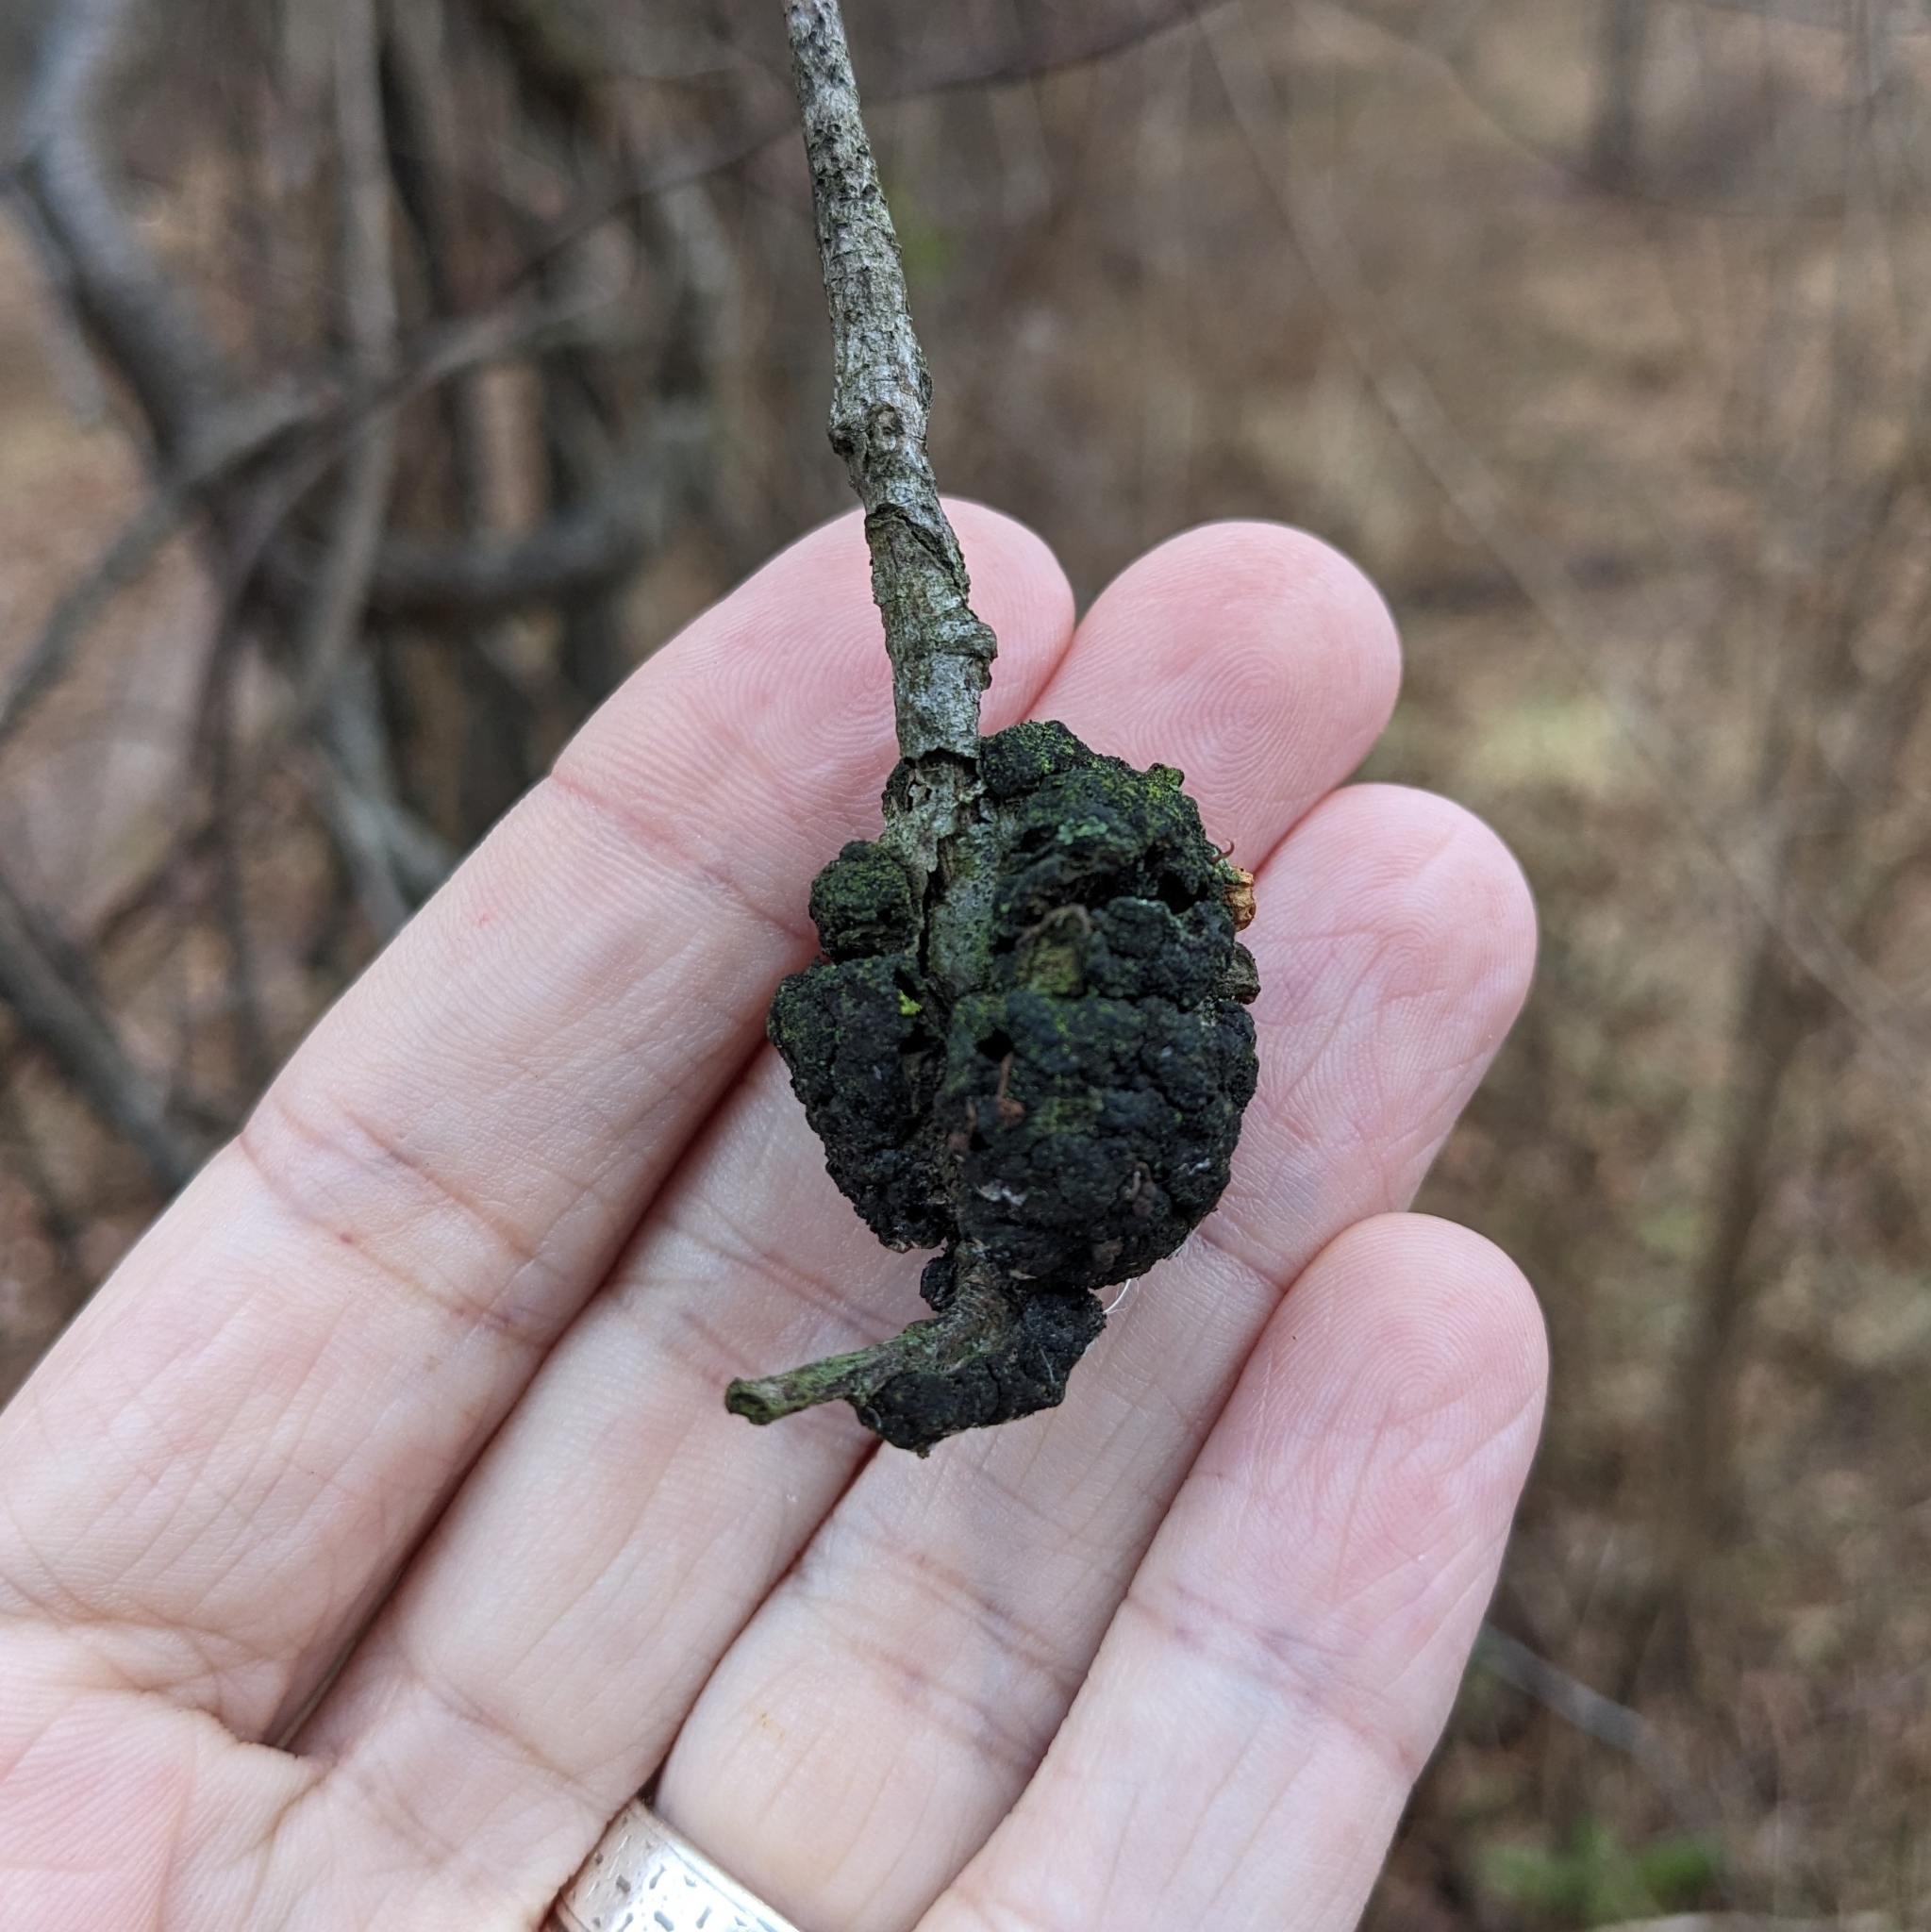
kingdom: Fungi
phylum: Ascomycota
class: Dothideomycetes
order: Venturiales
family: Venturiaceae
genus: Apiosporina
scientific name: Apiosporina morbosa
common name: Black knot
